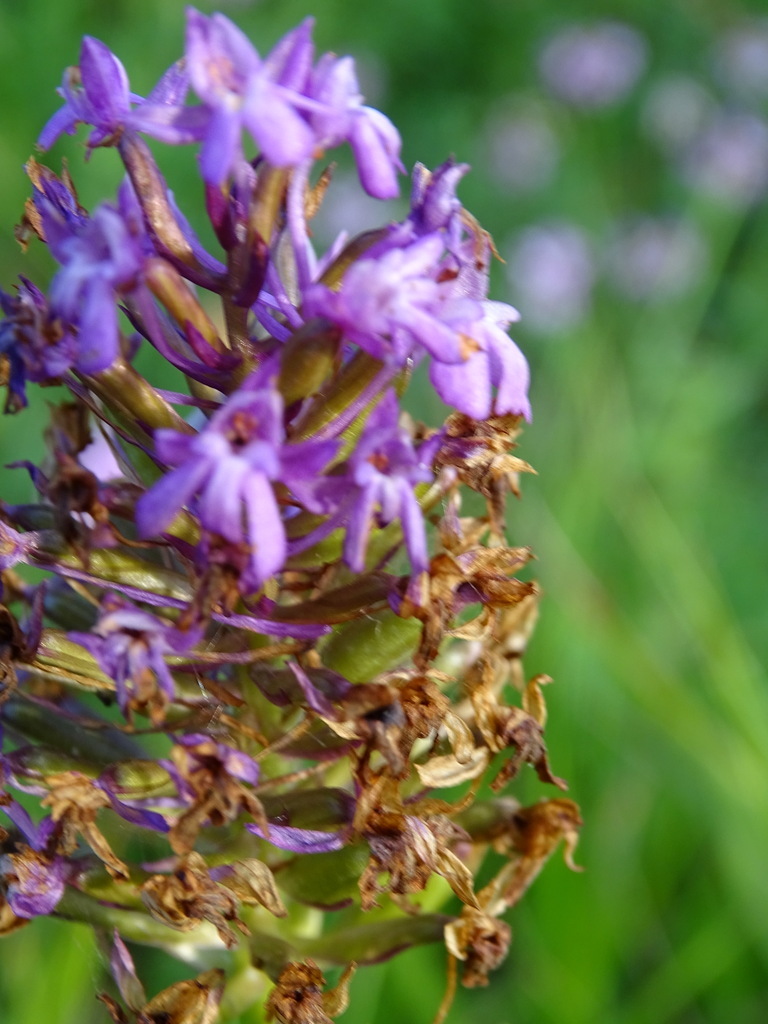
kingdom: Plantae
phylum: Tracheophyta
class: Liliopsida
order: Asparagales
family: Orchidaceae
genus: Anacamptis
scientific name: Anacamptis pyramidalis
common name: Pyramidal orchid
